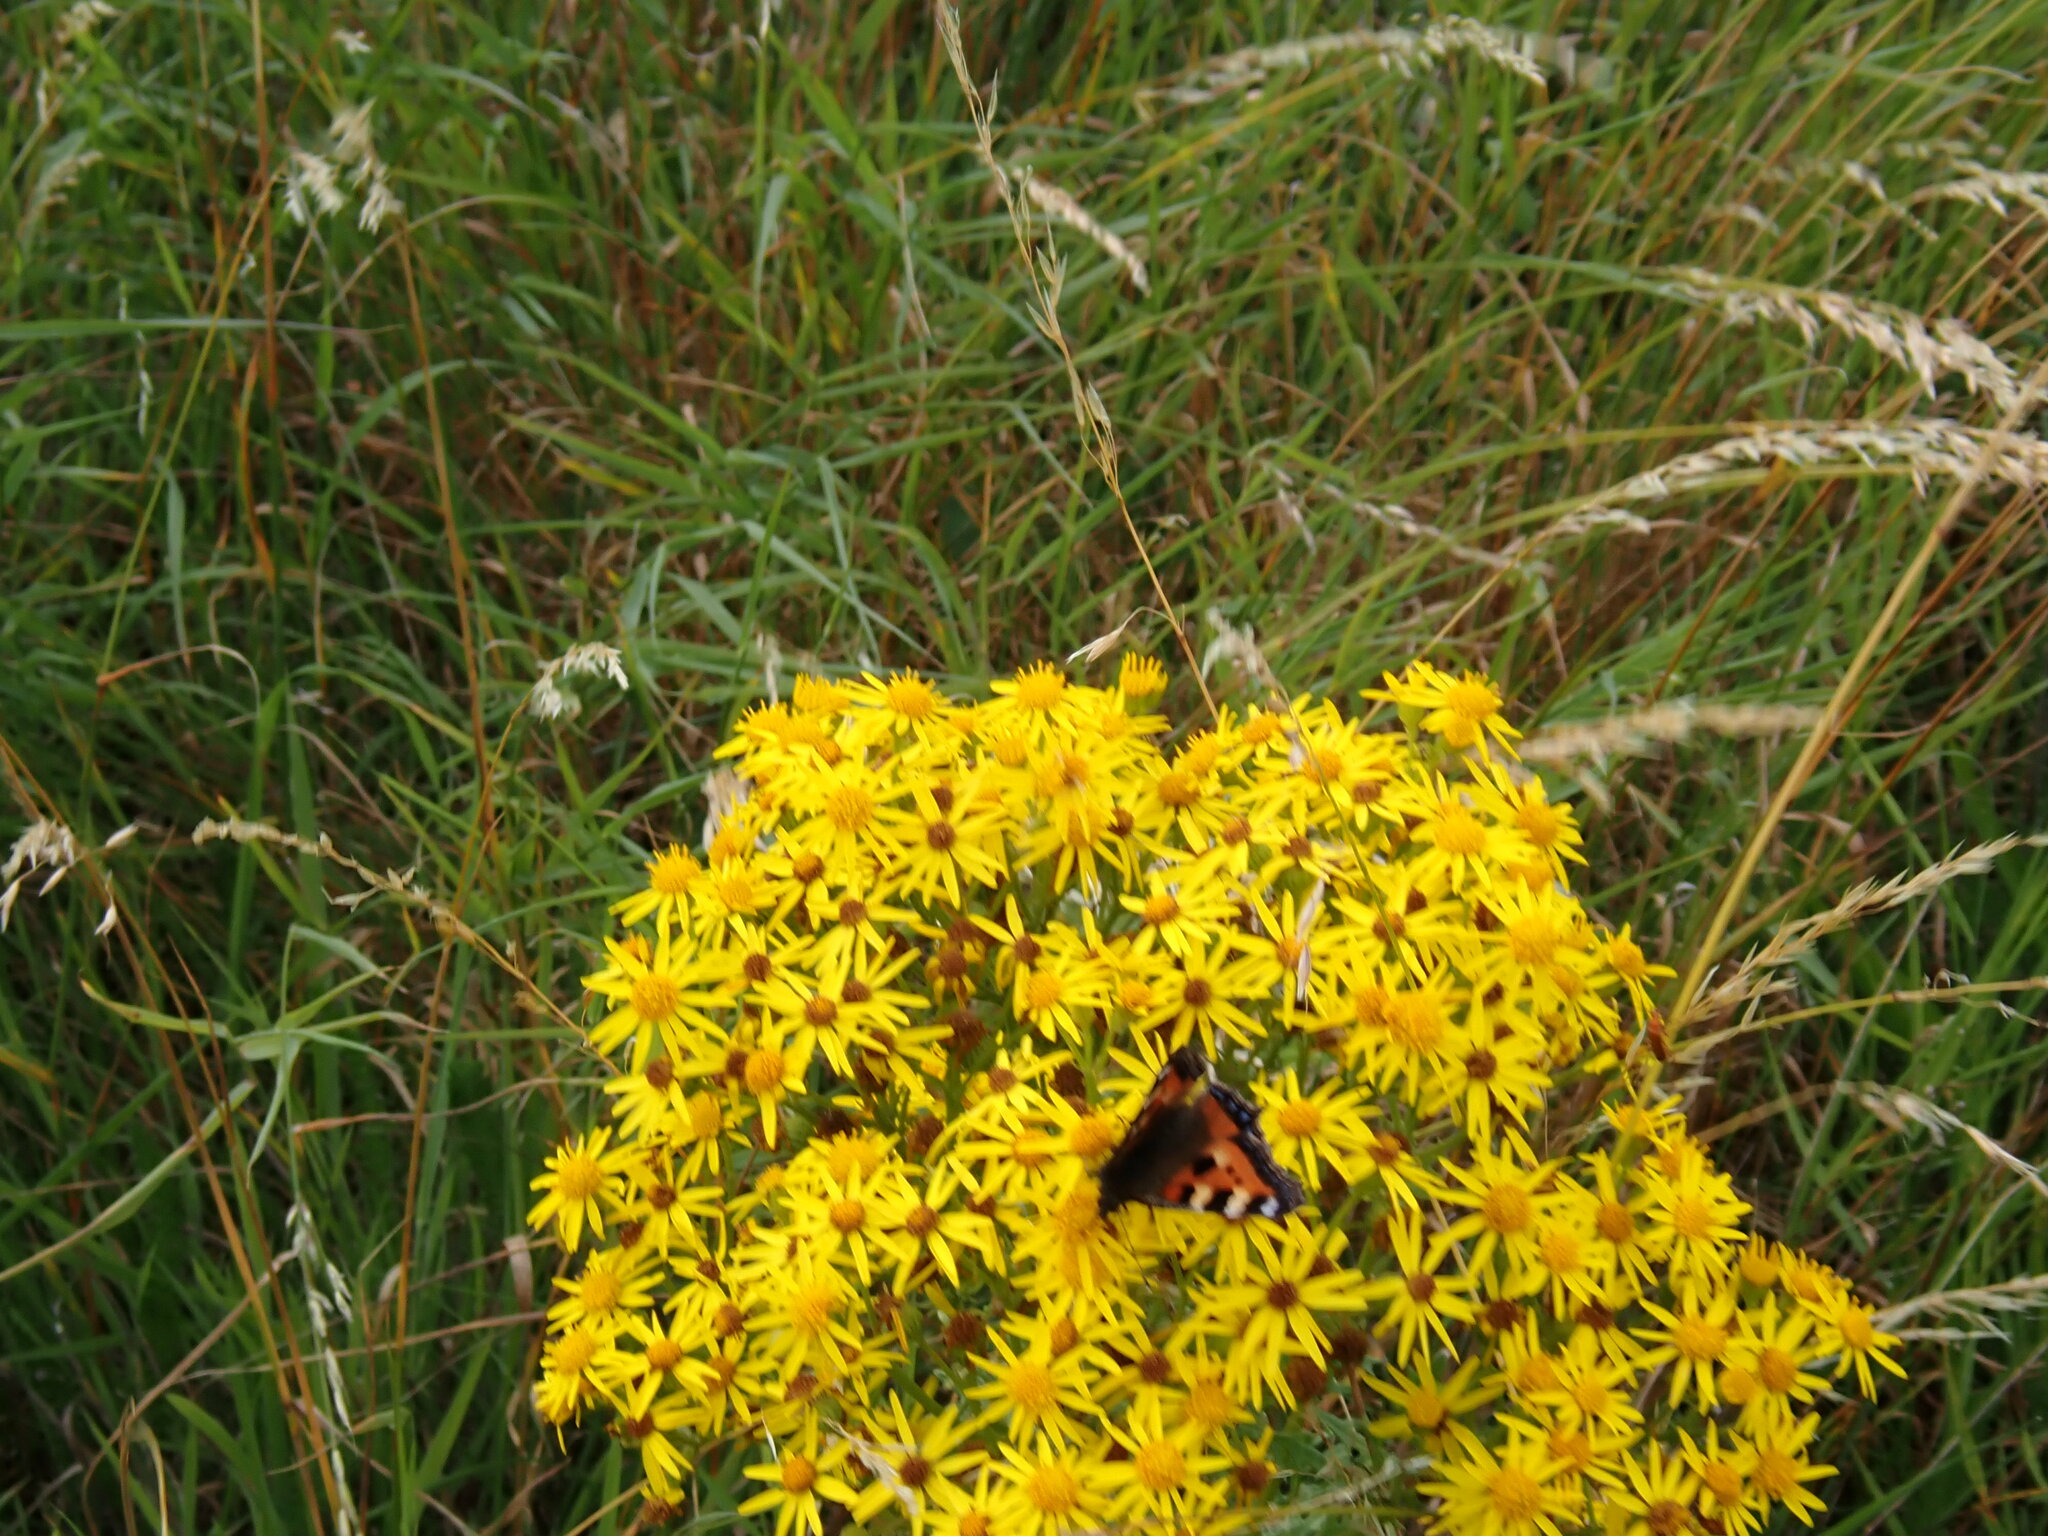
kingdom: Animalia
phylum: Arthropoda
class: Insecta
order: Lepidoptera
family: Nymphalidae
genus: Aglais
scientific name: Aglais urticae
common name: Small tortoiseshell
